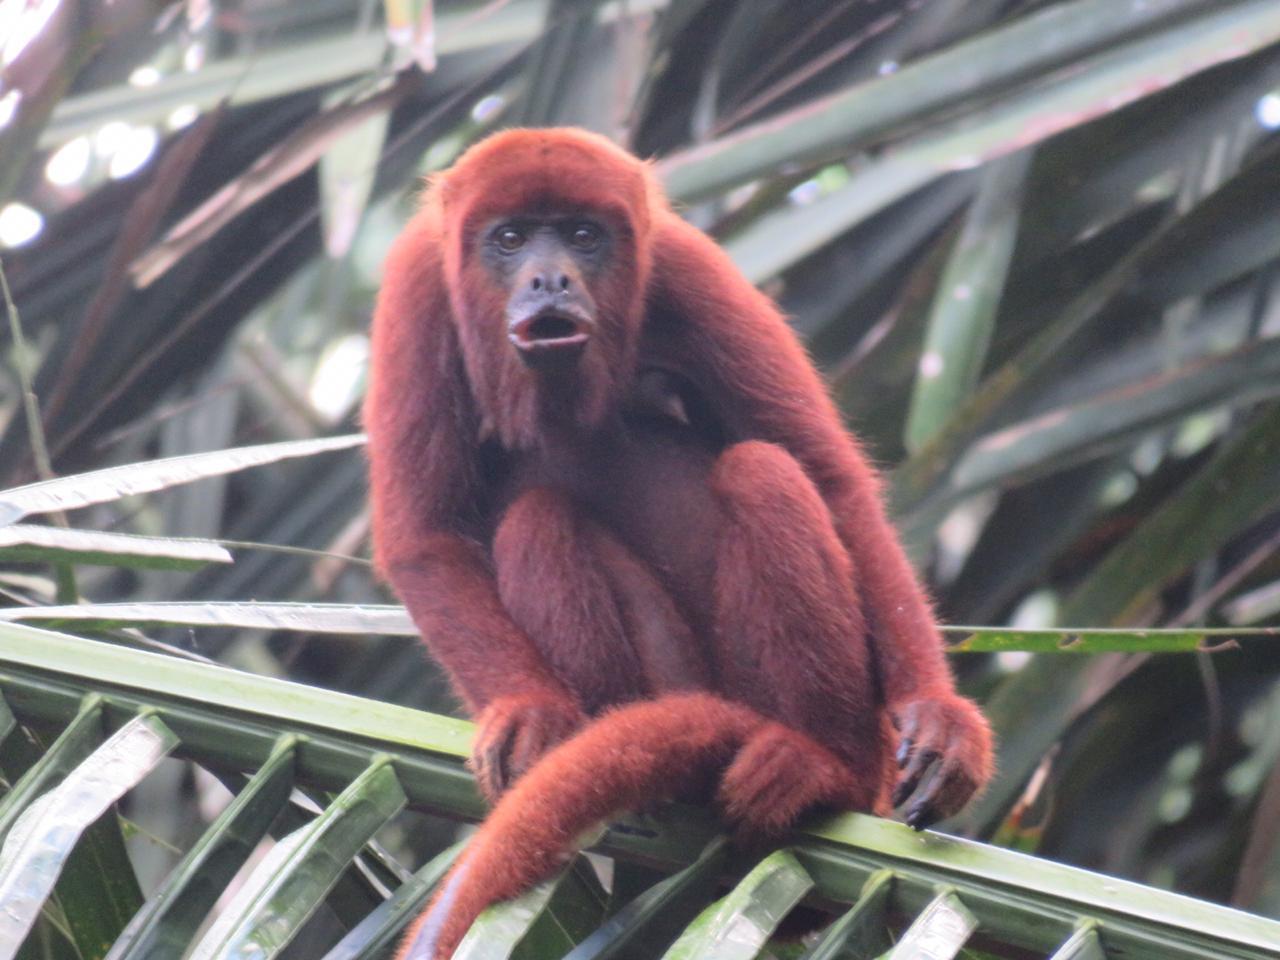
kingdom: Animalia
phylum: Chordata
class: Mammalia
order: Primates
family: Atelidae
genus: Alouatta
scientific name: Alouatta seniculus
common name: Venezuelan red howler
